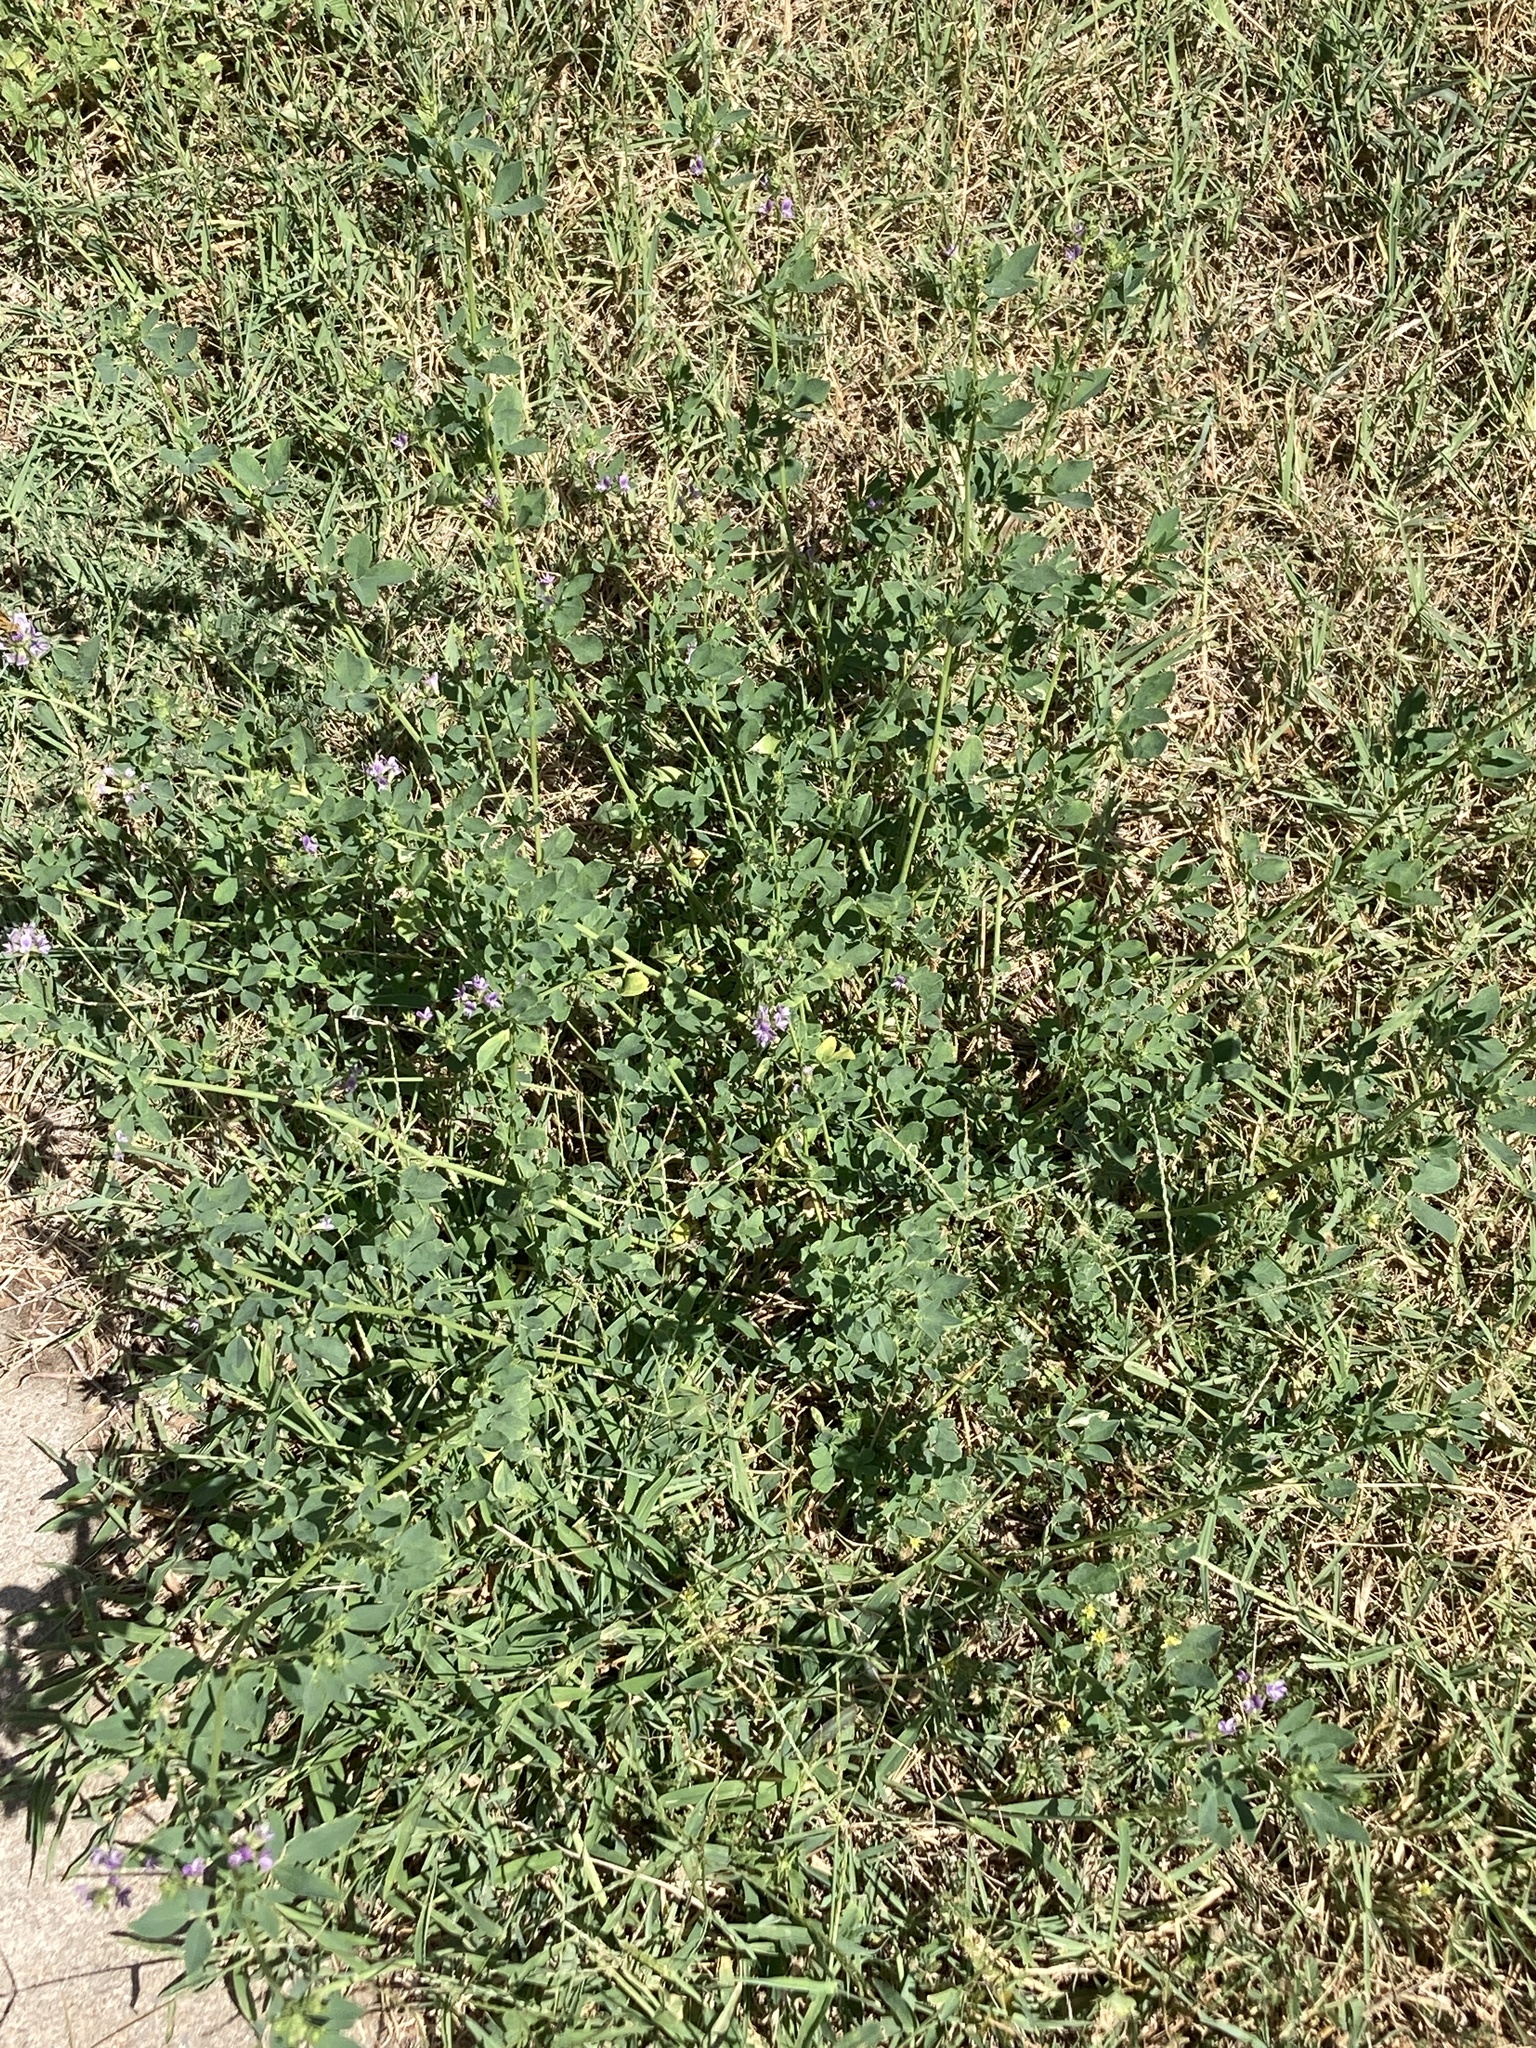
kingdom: Plantae
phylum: Tracheophyta
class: Magnoliopsida
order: Fabales
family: Fabaceae
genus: Medicago
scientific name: Medicago sativa
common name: Alfalfa
